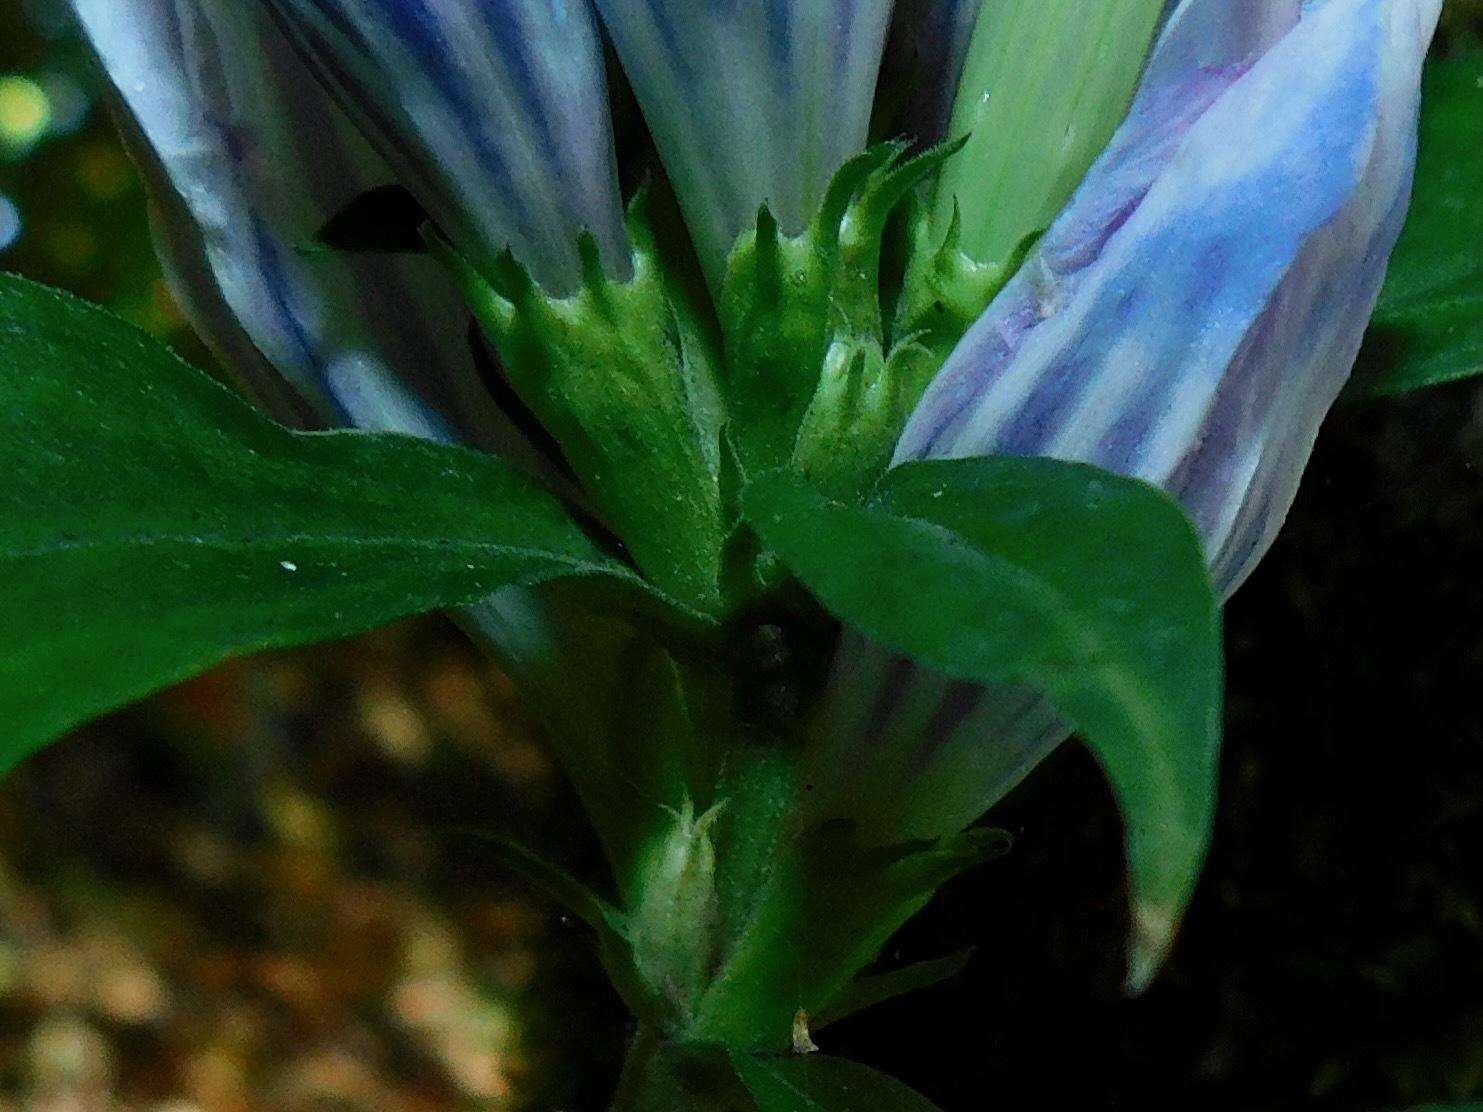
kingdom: Plantae
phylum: Tracheophyta
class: Magnoliopsida
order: Gentianales
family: Gentianaceae
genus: Gentiana
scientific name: Gentiana decora
